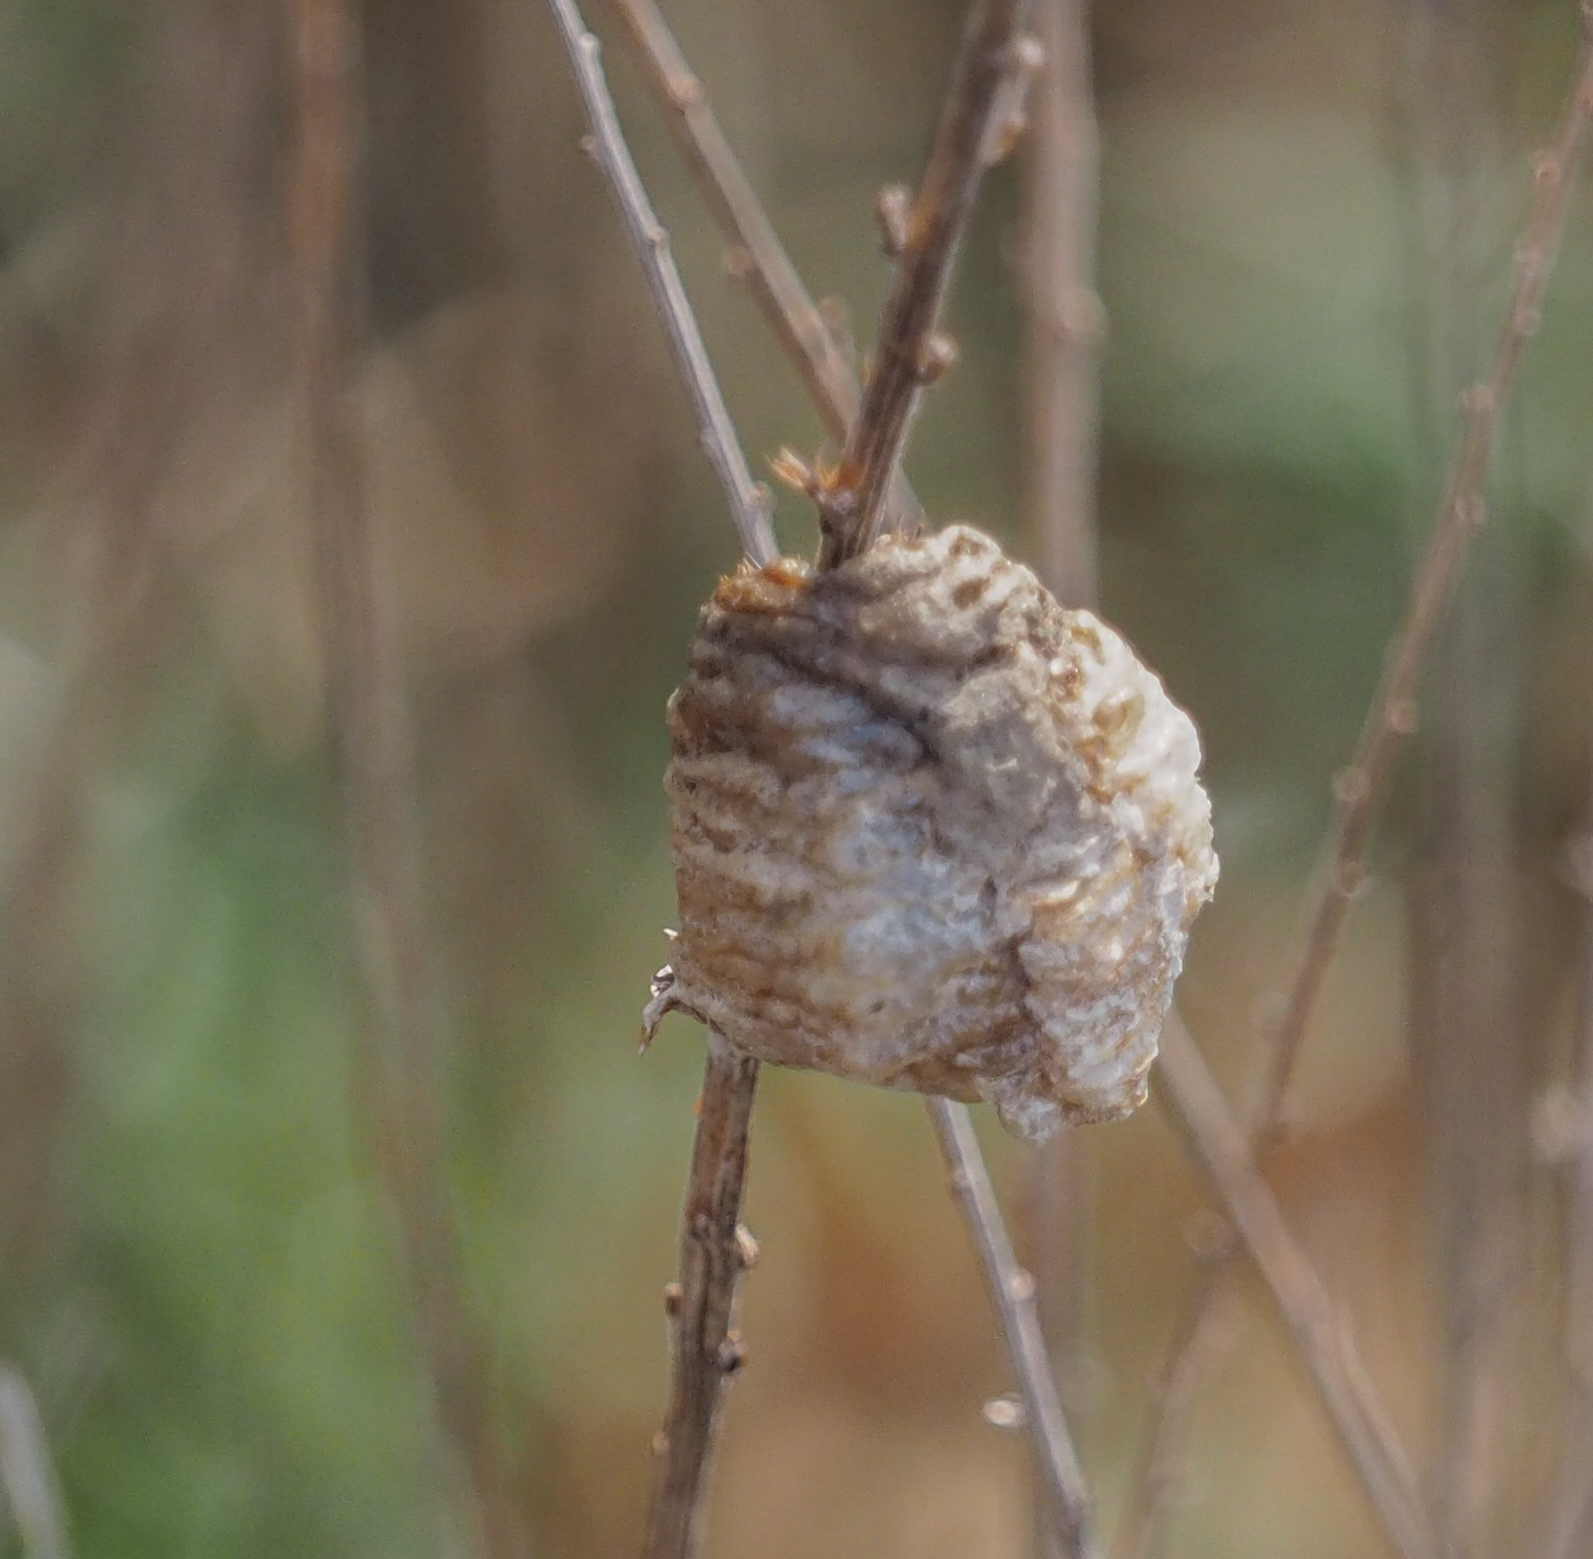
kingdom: Animalia
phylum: Arthropoda
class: Insecta
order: Mantodea
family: Mantidae
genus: Tenodera
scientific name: Tenodera sinensis
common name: Chinese mantis
